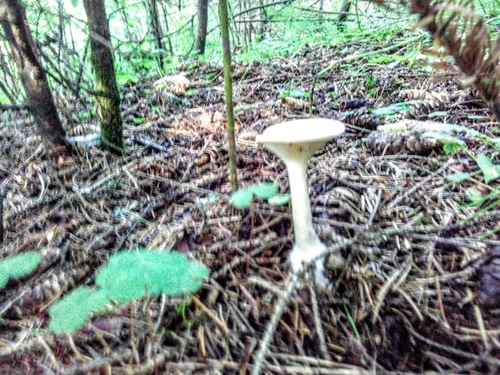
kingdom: Fungi
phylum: Basidiomycota
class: Agaricomycetes
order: Agaricales
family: Tricholomataceae
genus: Infundibulicybe
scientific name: Infundibulicybe gibba
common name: Common funnel
